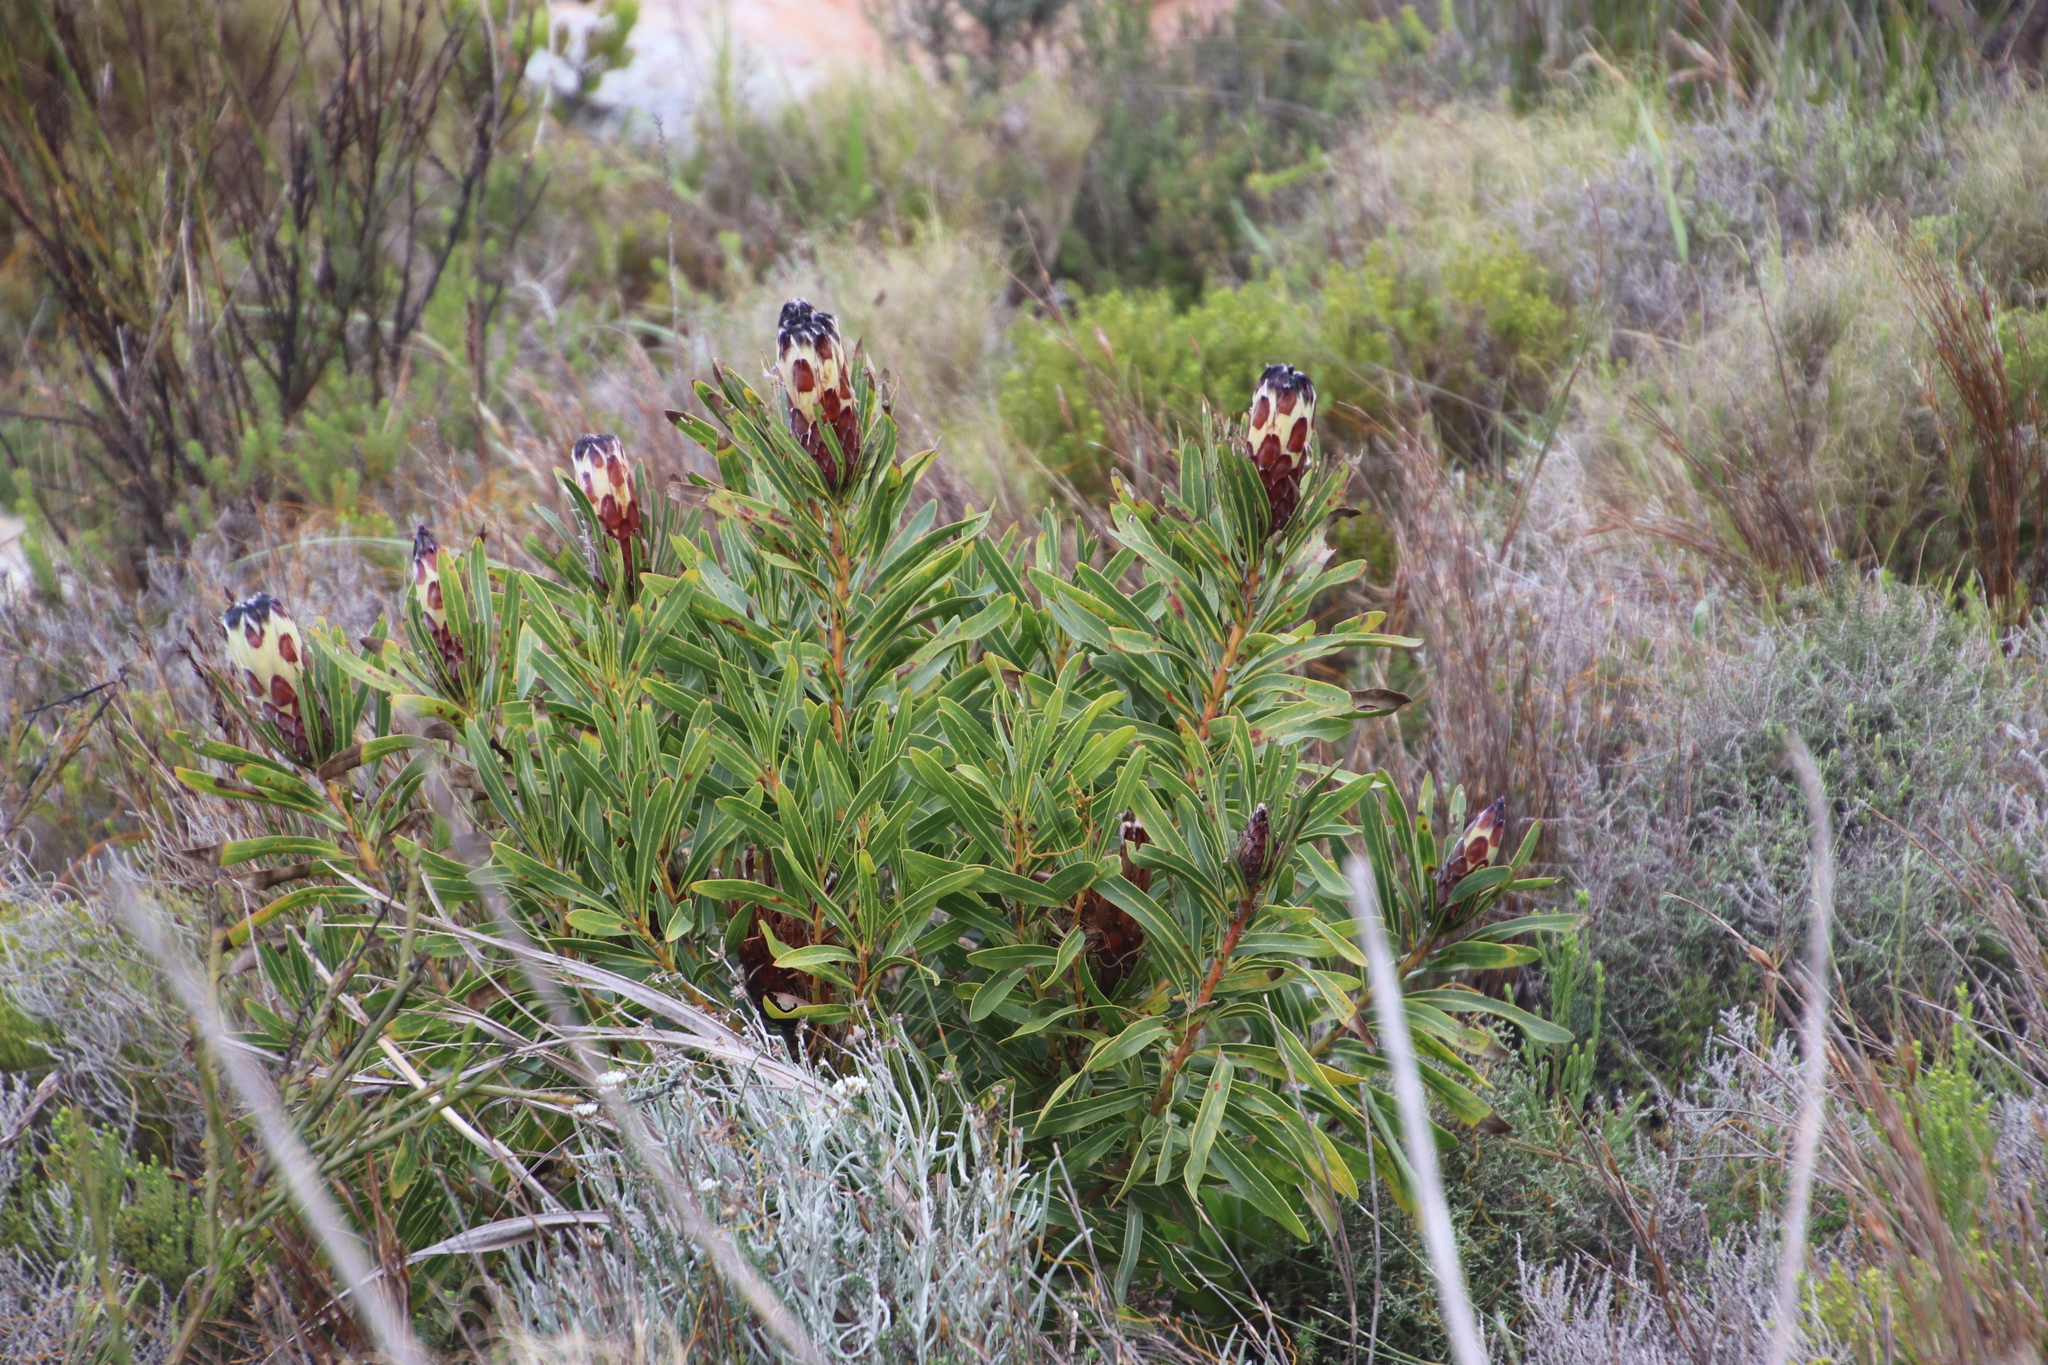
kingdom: Plantae
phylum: Tracheophyta
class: Magnoliopsida
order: Proteales
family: Proteaceae
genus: Protea
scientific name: Protea lepidocarpodendron
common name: Black-bearded protea
